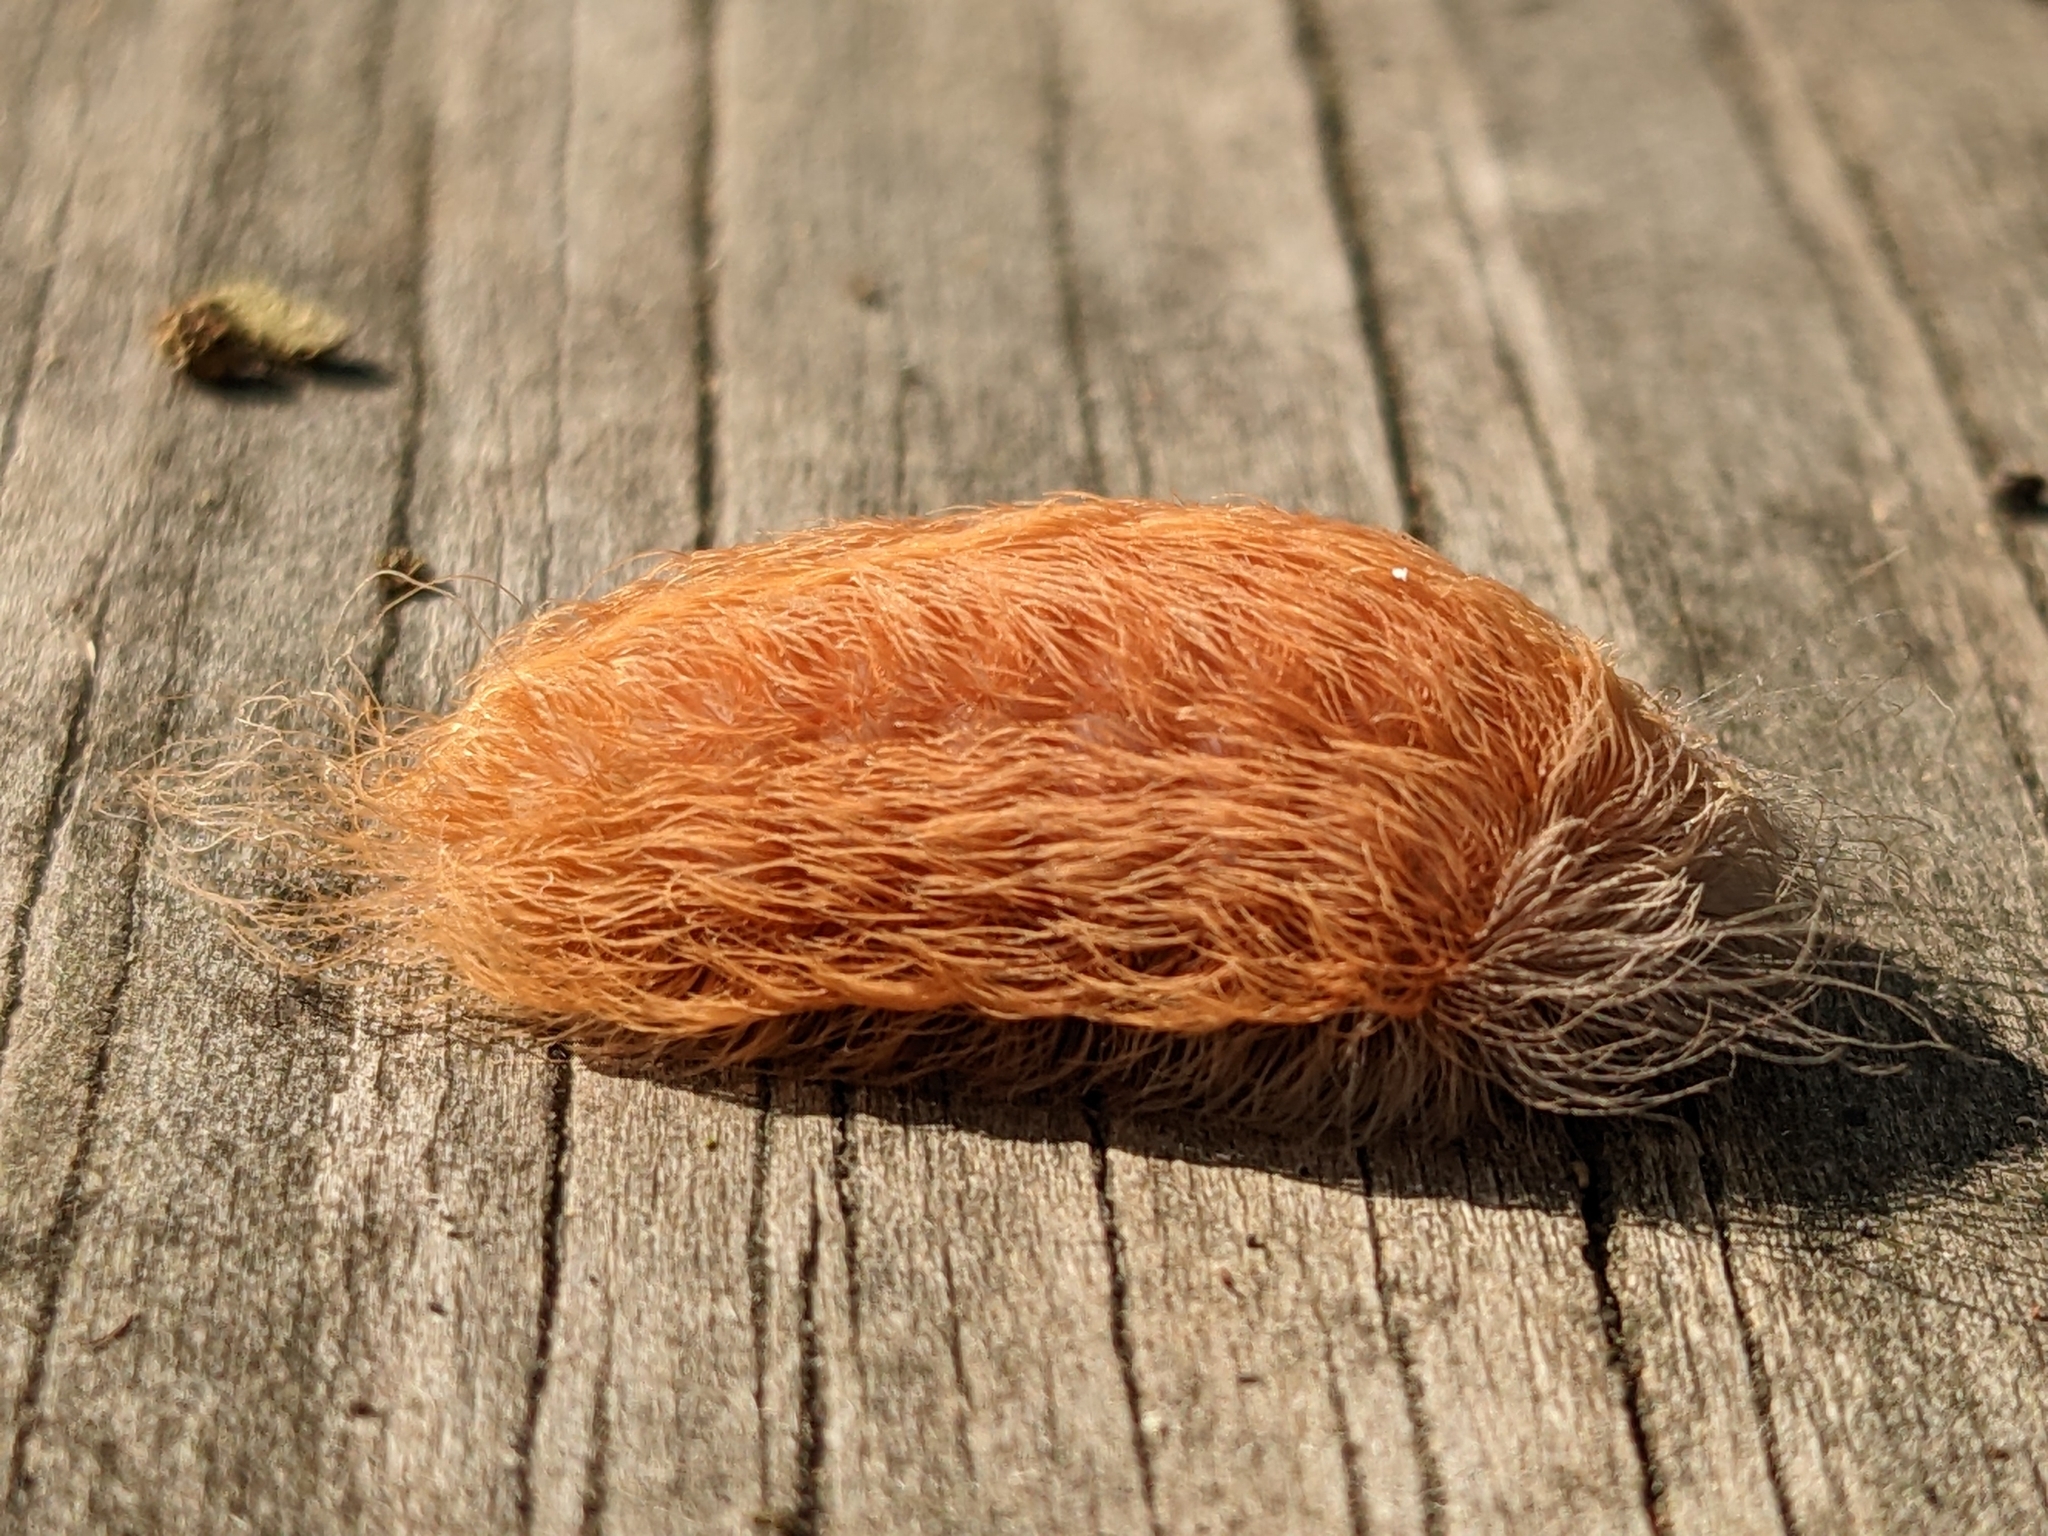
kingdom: Animalia
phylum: Arthropoda
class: Insecta
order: Lepidoptera
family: Megalopygidae
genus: Megalopyge
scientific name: Megalopyge crispata
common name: Black-waved flannel moth
